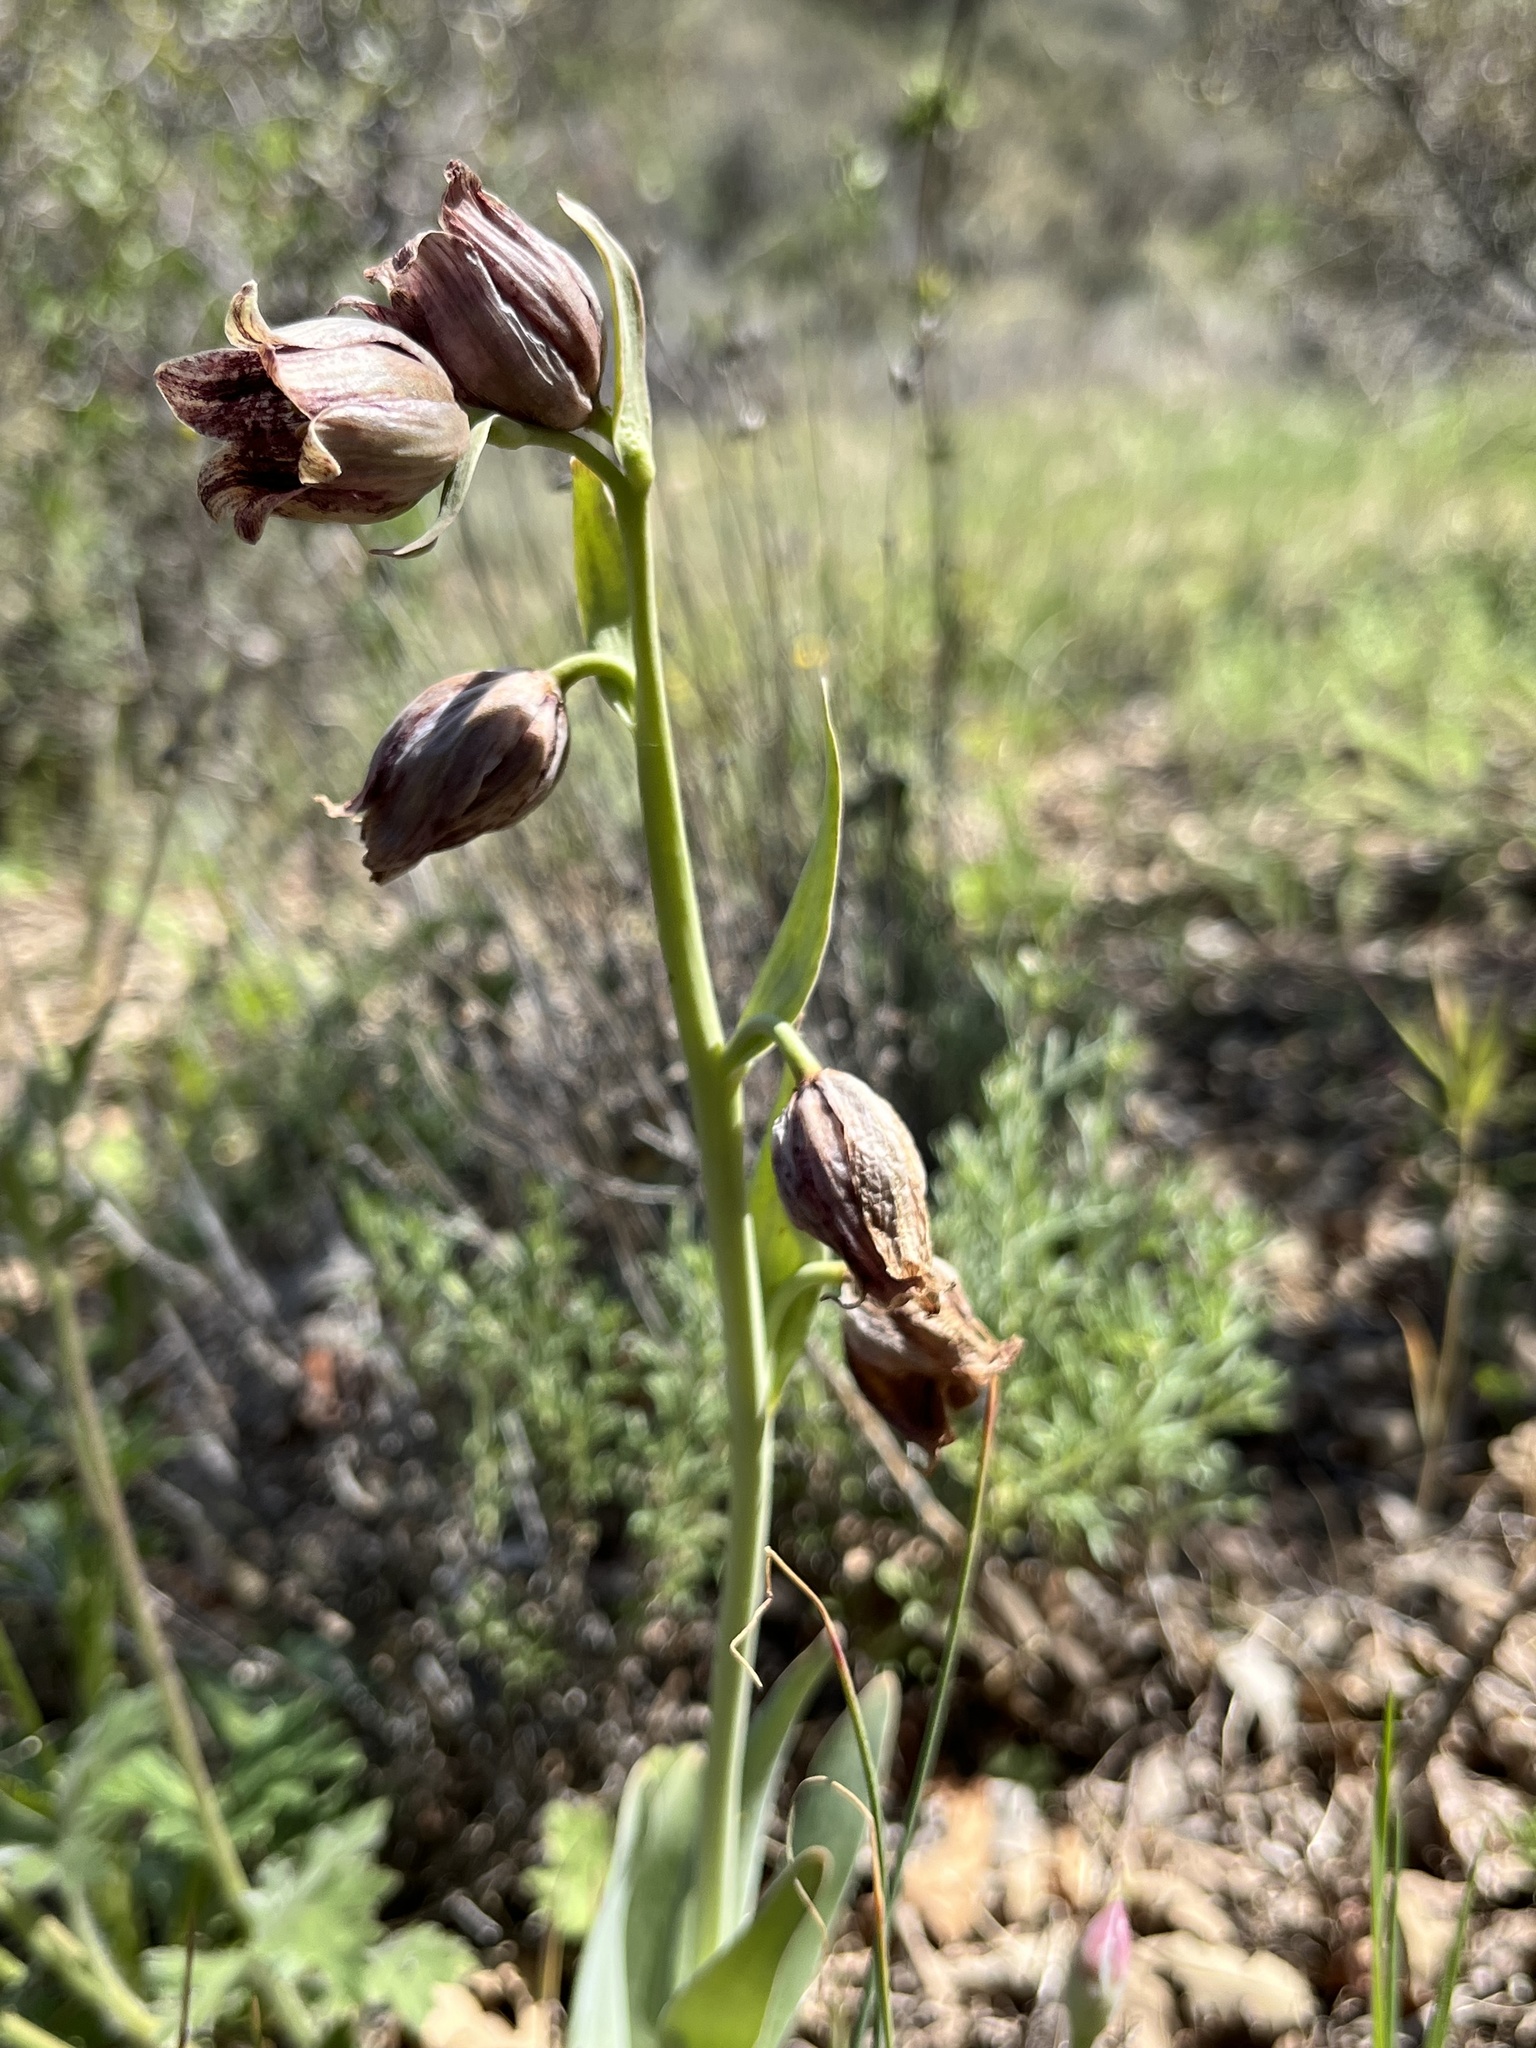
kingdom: Plantae
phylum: Tracheophyta
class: Liliopsida
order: Liliales
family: Liliaceae
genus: Fritillaria
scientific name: Fritillaria agrestis
